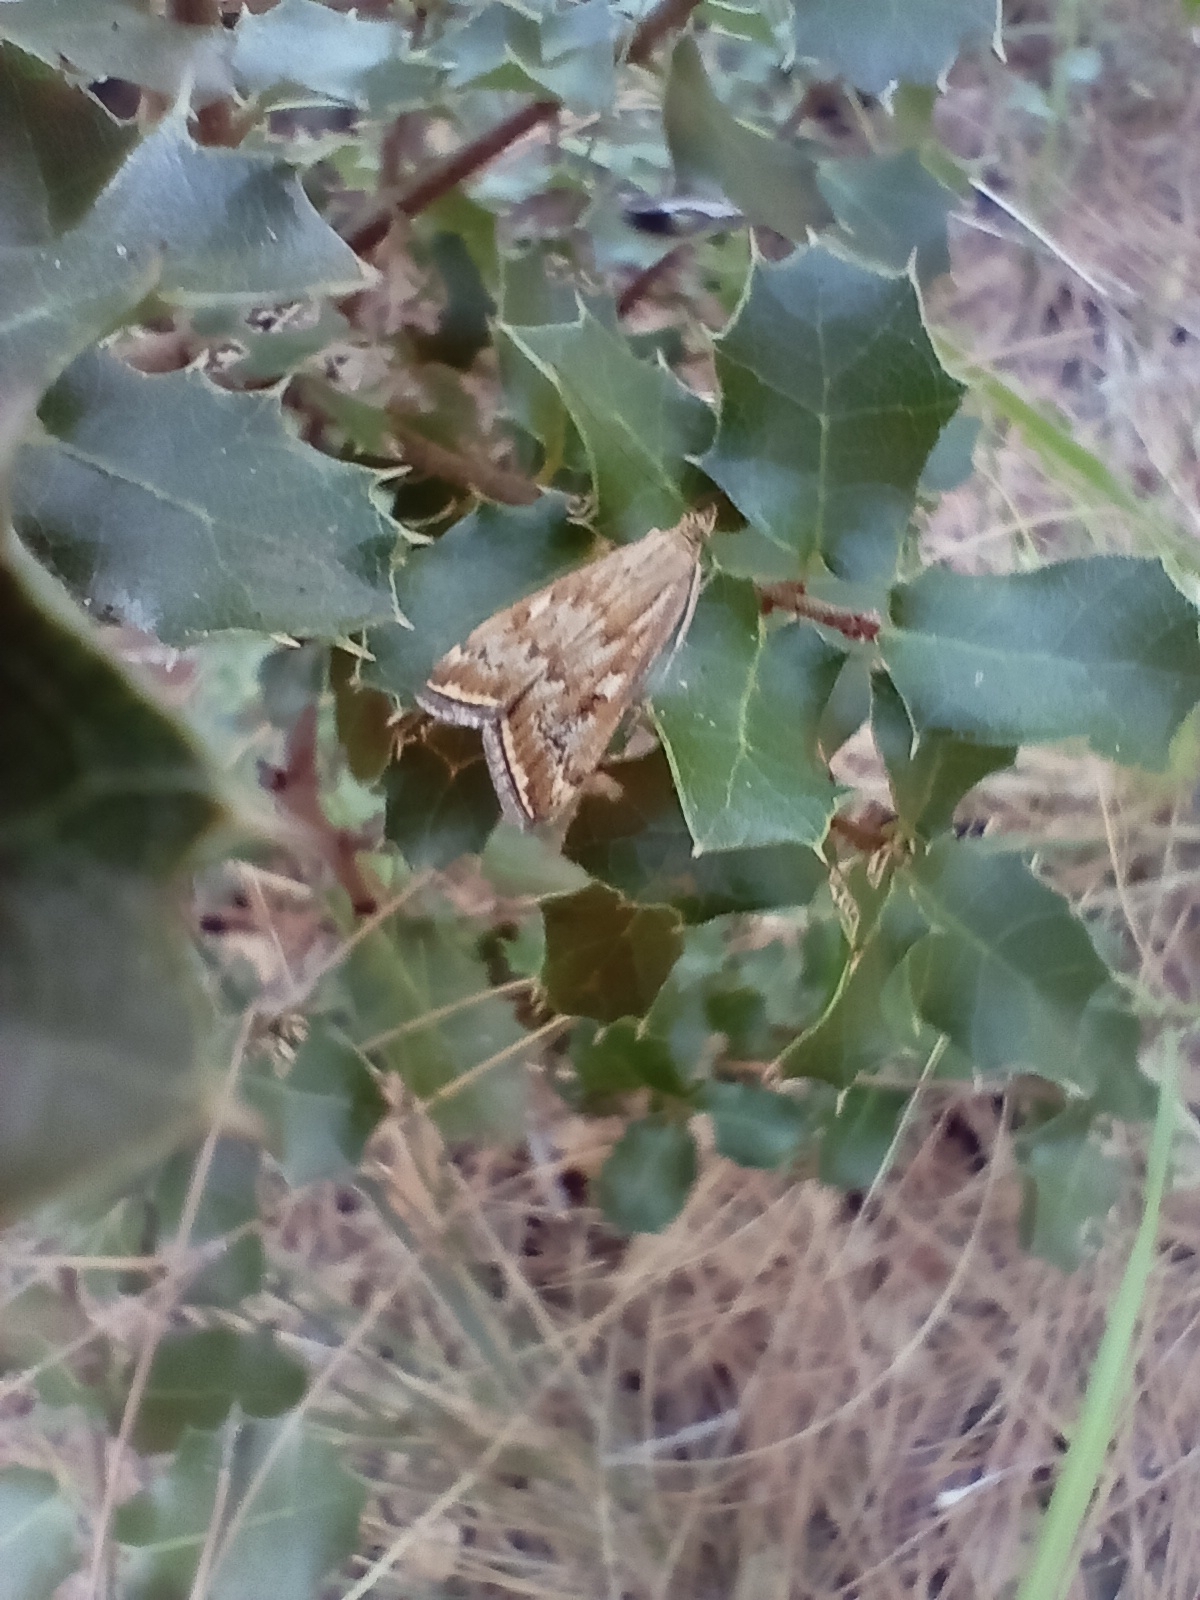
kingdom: Animalia
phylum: Arthropoda
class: Insecta
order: Lepidoptera
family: Crambidae
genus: Loxostege
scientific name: Loxostege sticticalis
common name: Crambid moth
